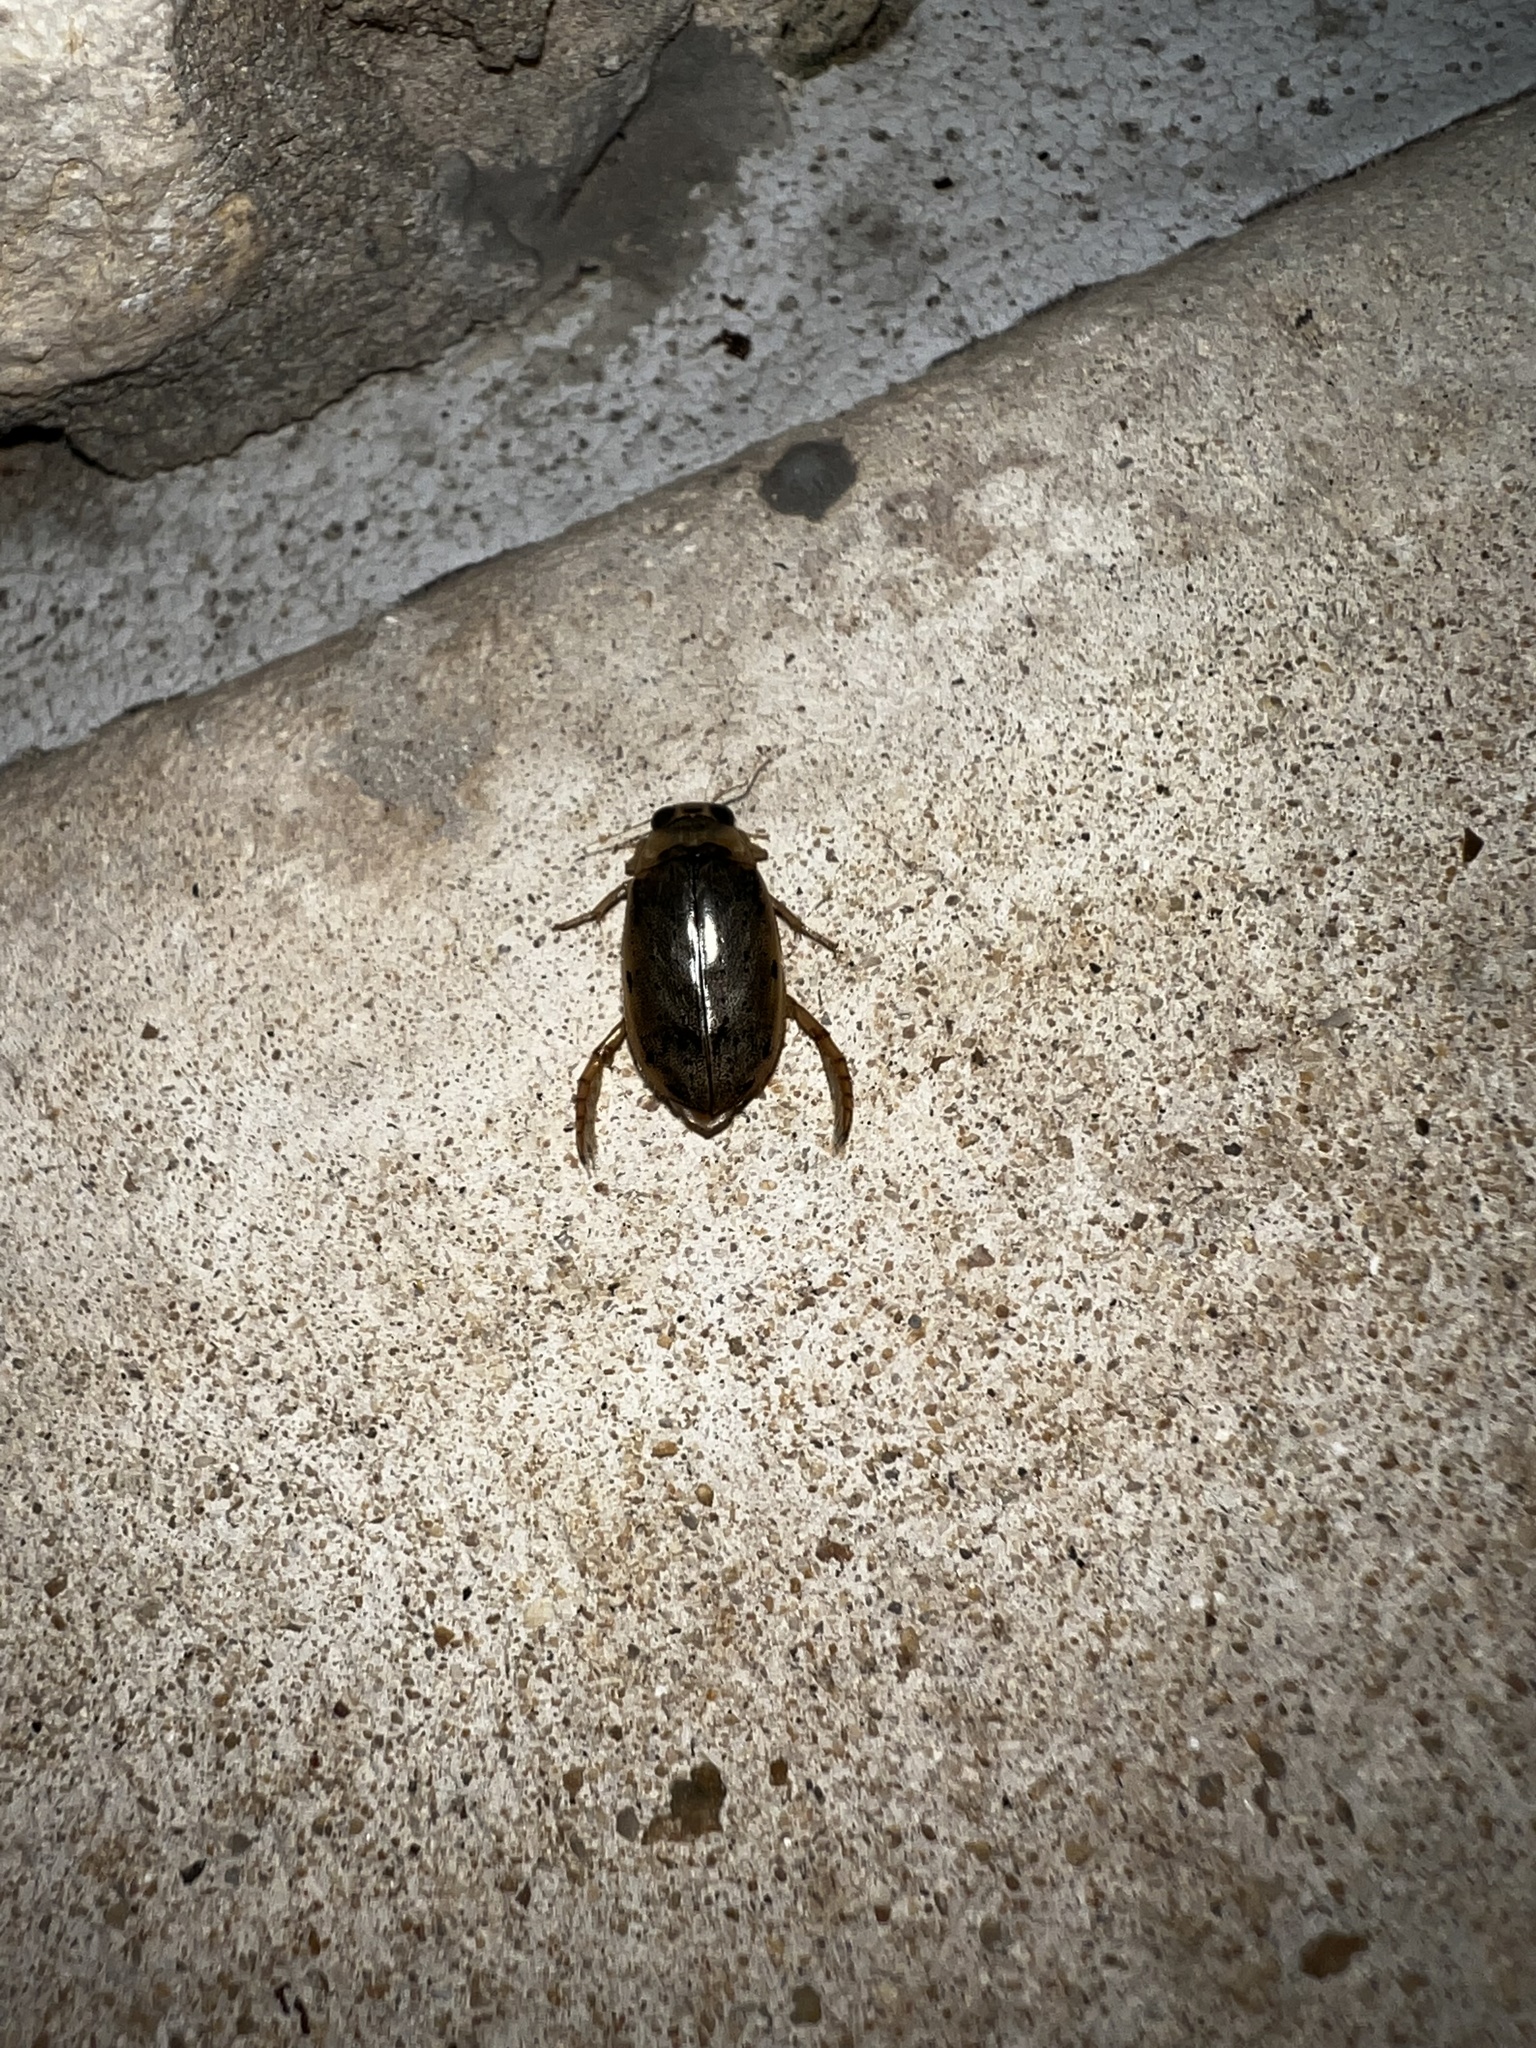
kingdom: Animalia
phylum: Arthropoda
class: Insecta
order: Coleoptera
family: Dytiscidae
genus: Eretes
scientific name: Eretes
